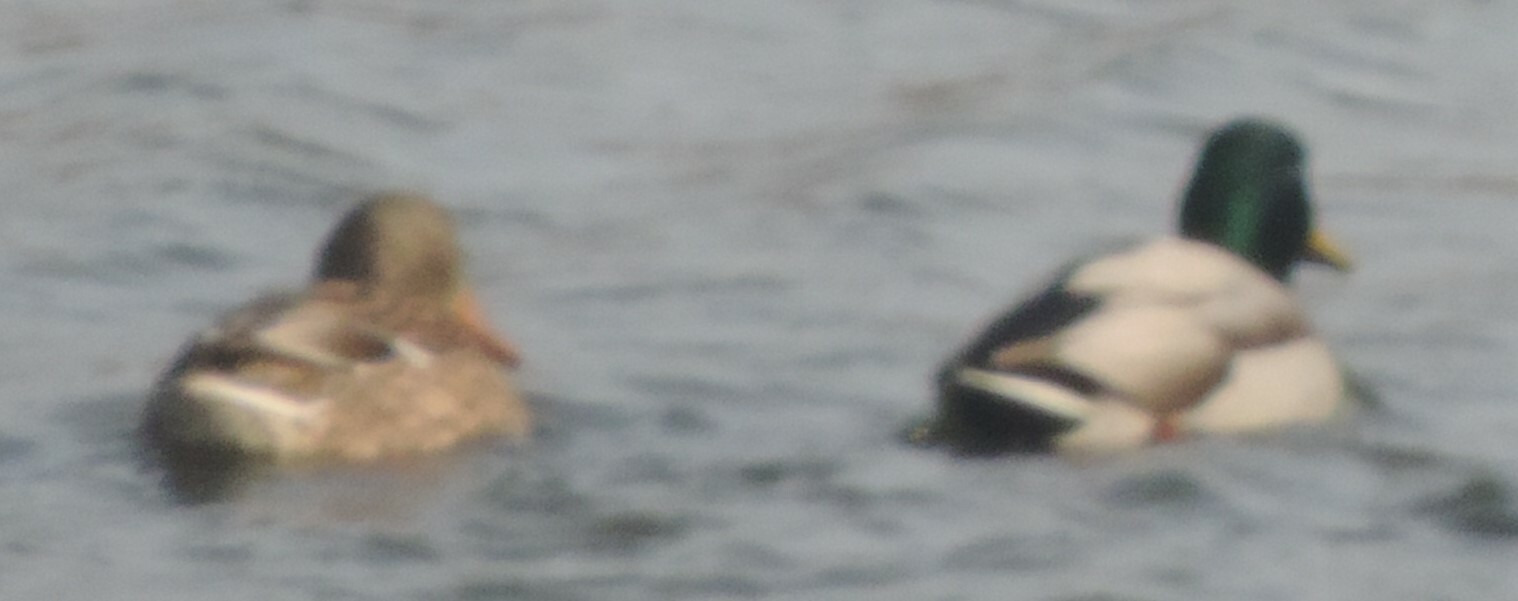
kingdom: Animalia
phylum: Chordata
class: Aves
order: Anseriformes
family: Anatidae
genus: Anas
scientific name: Anas platyrhynchos
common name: Mallard
